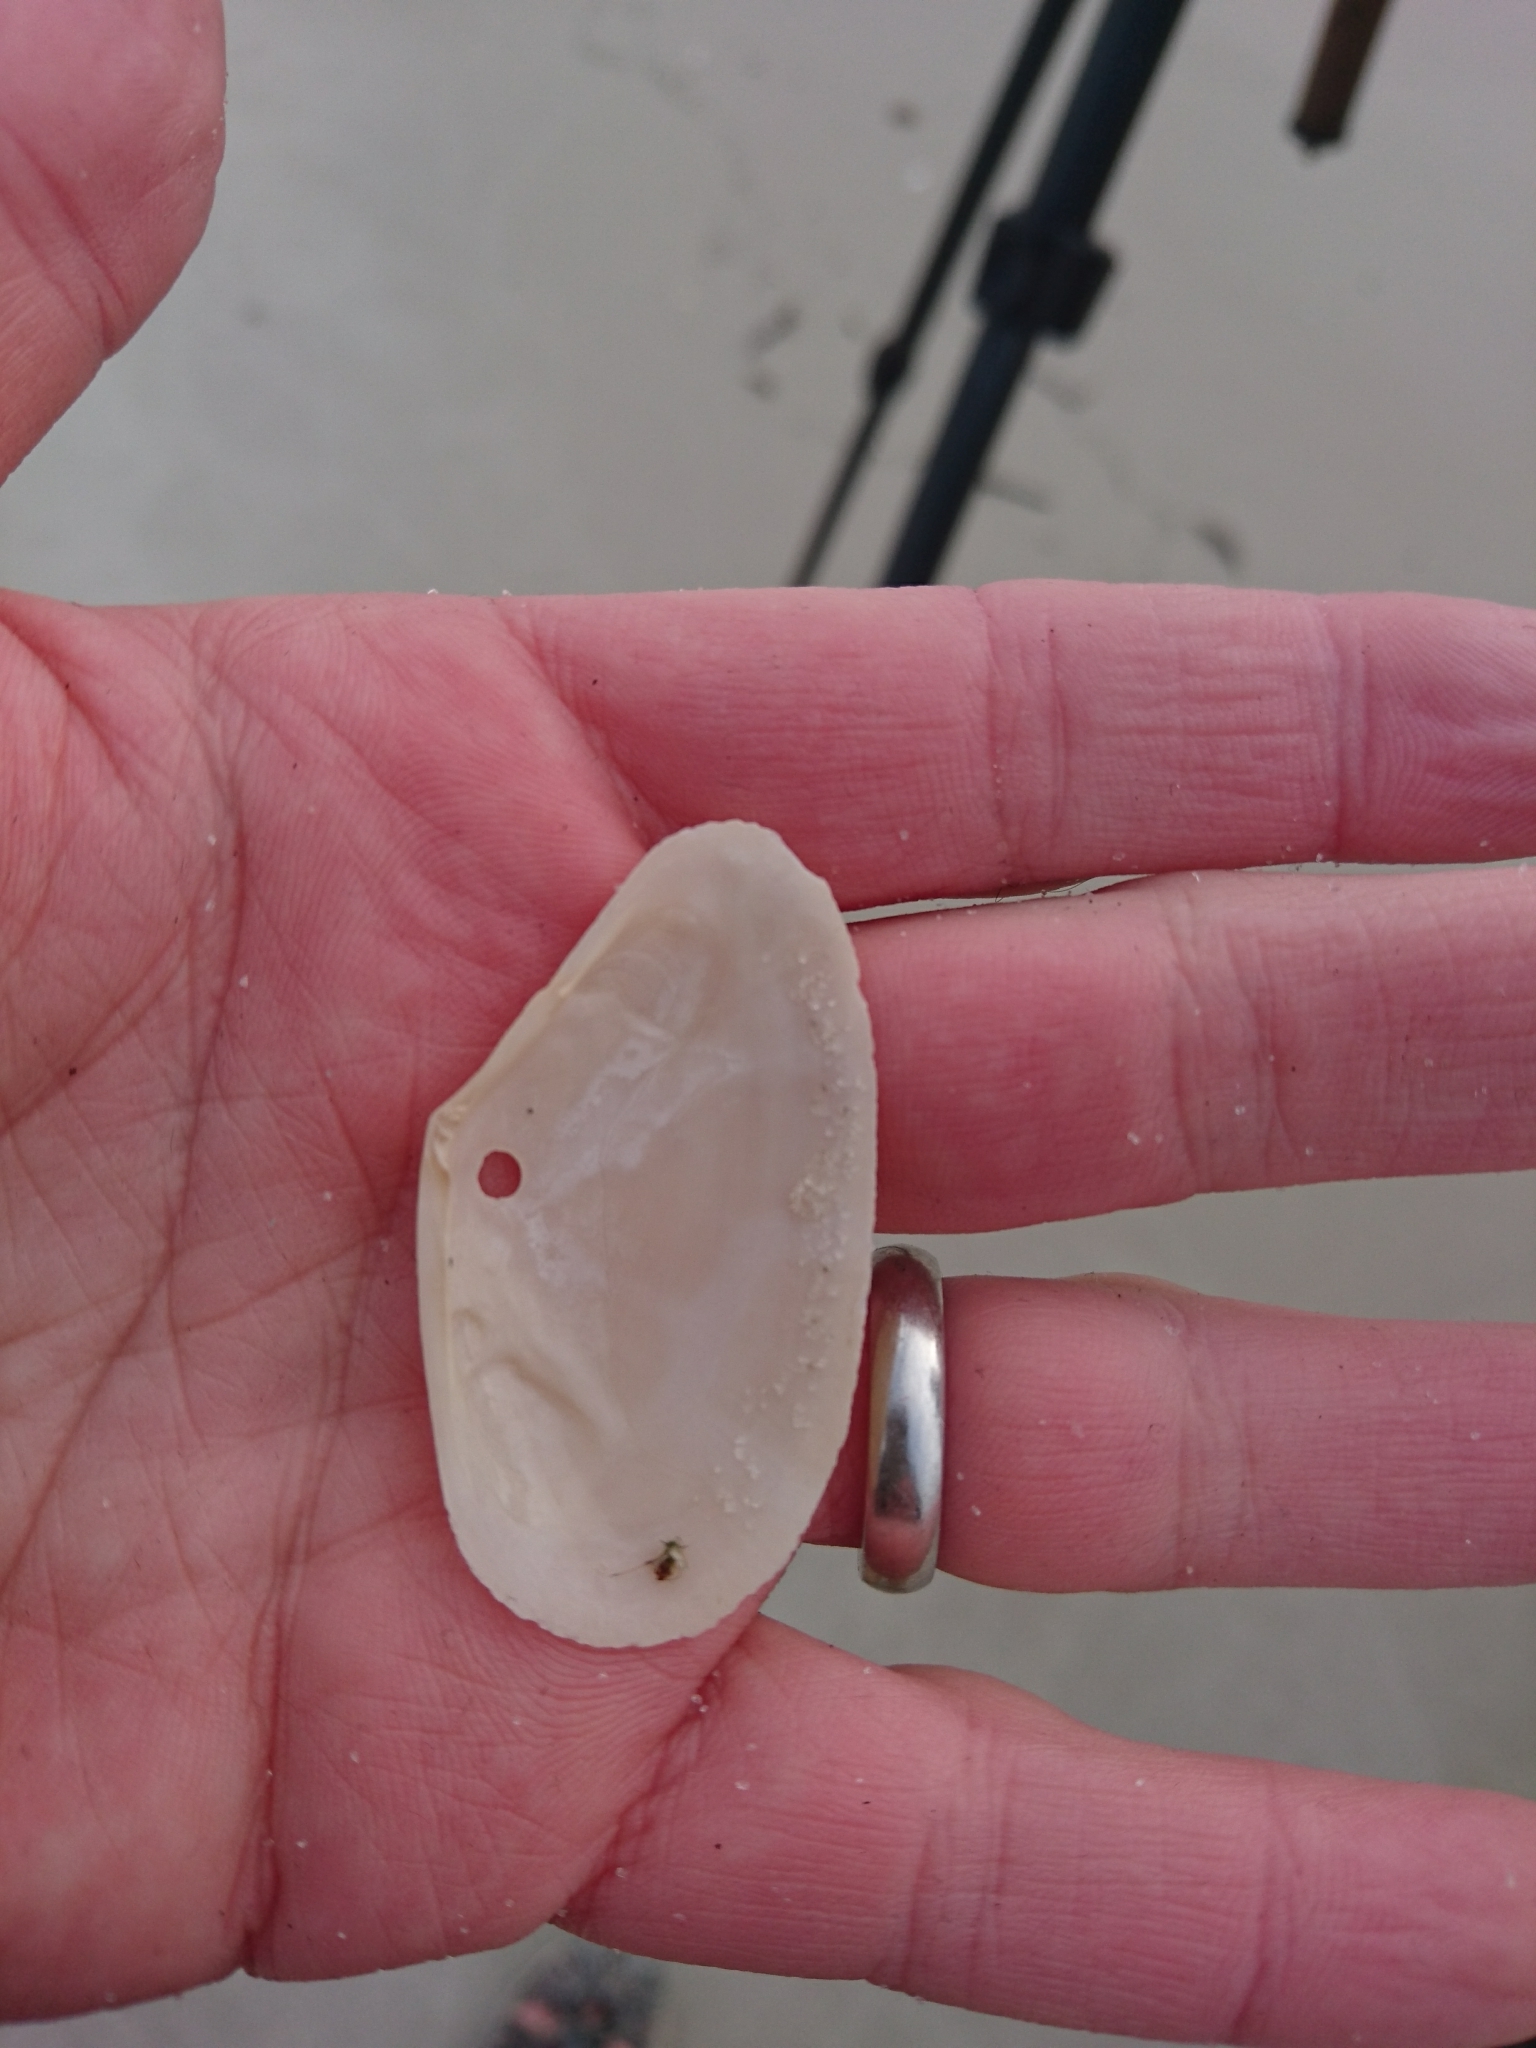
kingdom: Animalia
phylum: Mollusca
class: Bivalvia
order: Cardiida
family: Tellinidae
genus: Eurytellina
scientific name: Eurytellina alternata
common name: Alternate tellin
